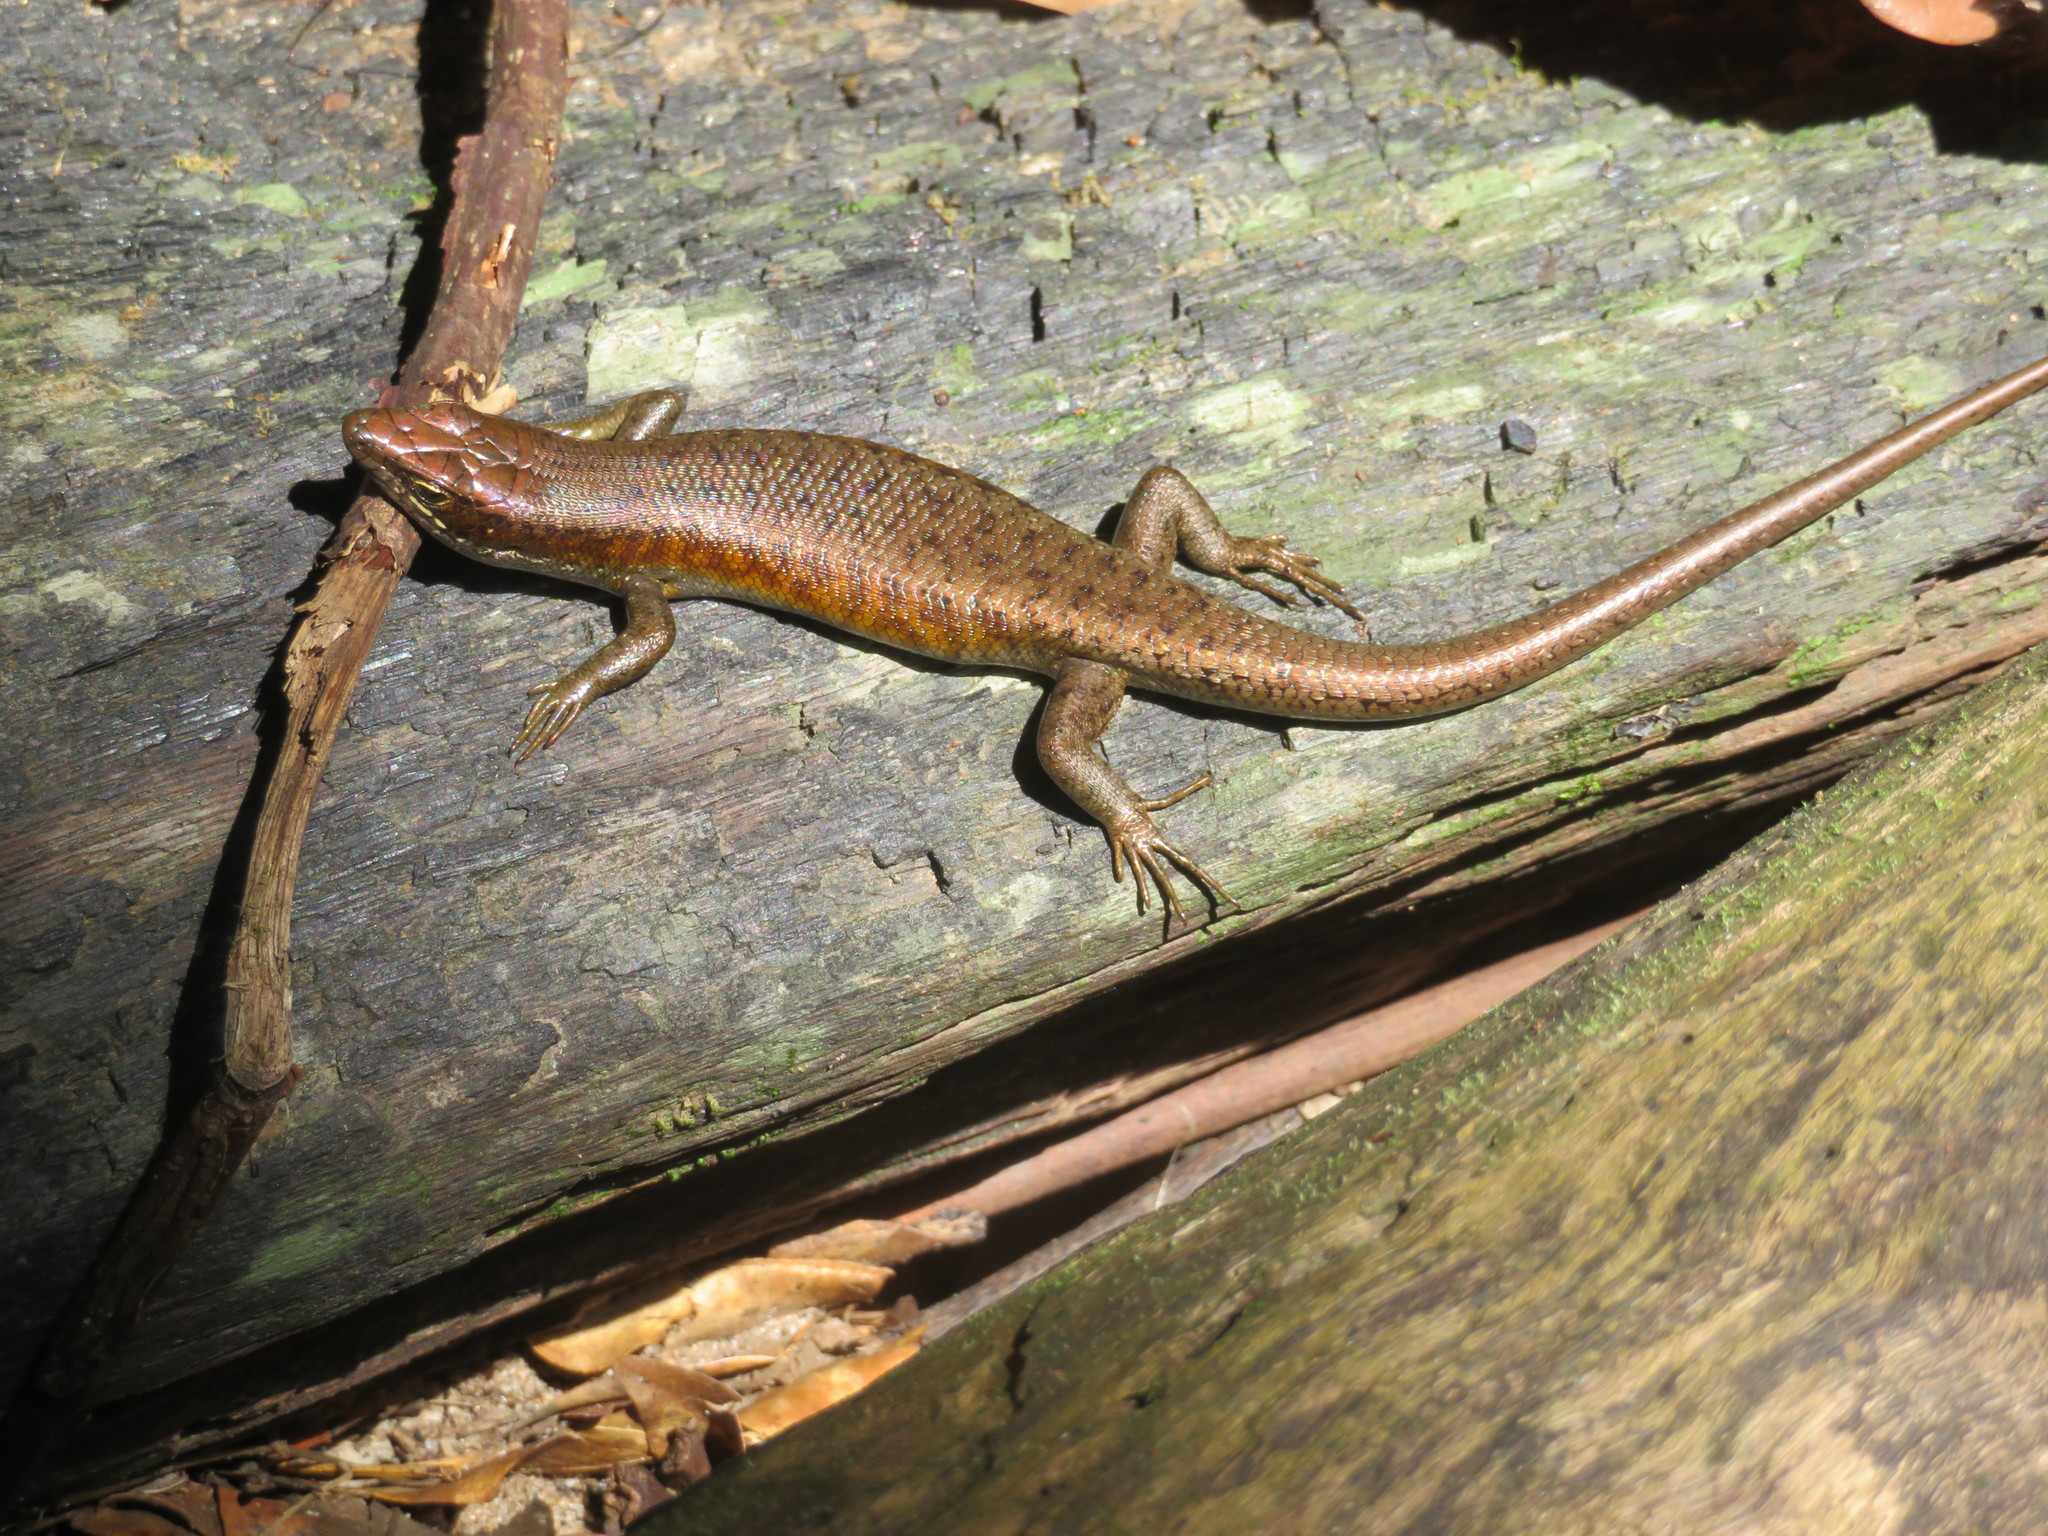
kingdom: Animalia
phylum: Chordata
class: Squamata
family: Scincidae
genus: Trachylepis
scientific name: Trachylepis maculilabris
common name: Speckle-lipped mabuya
